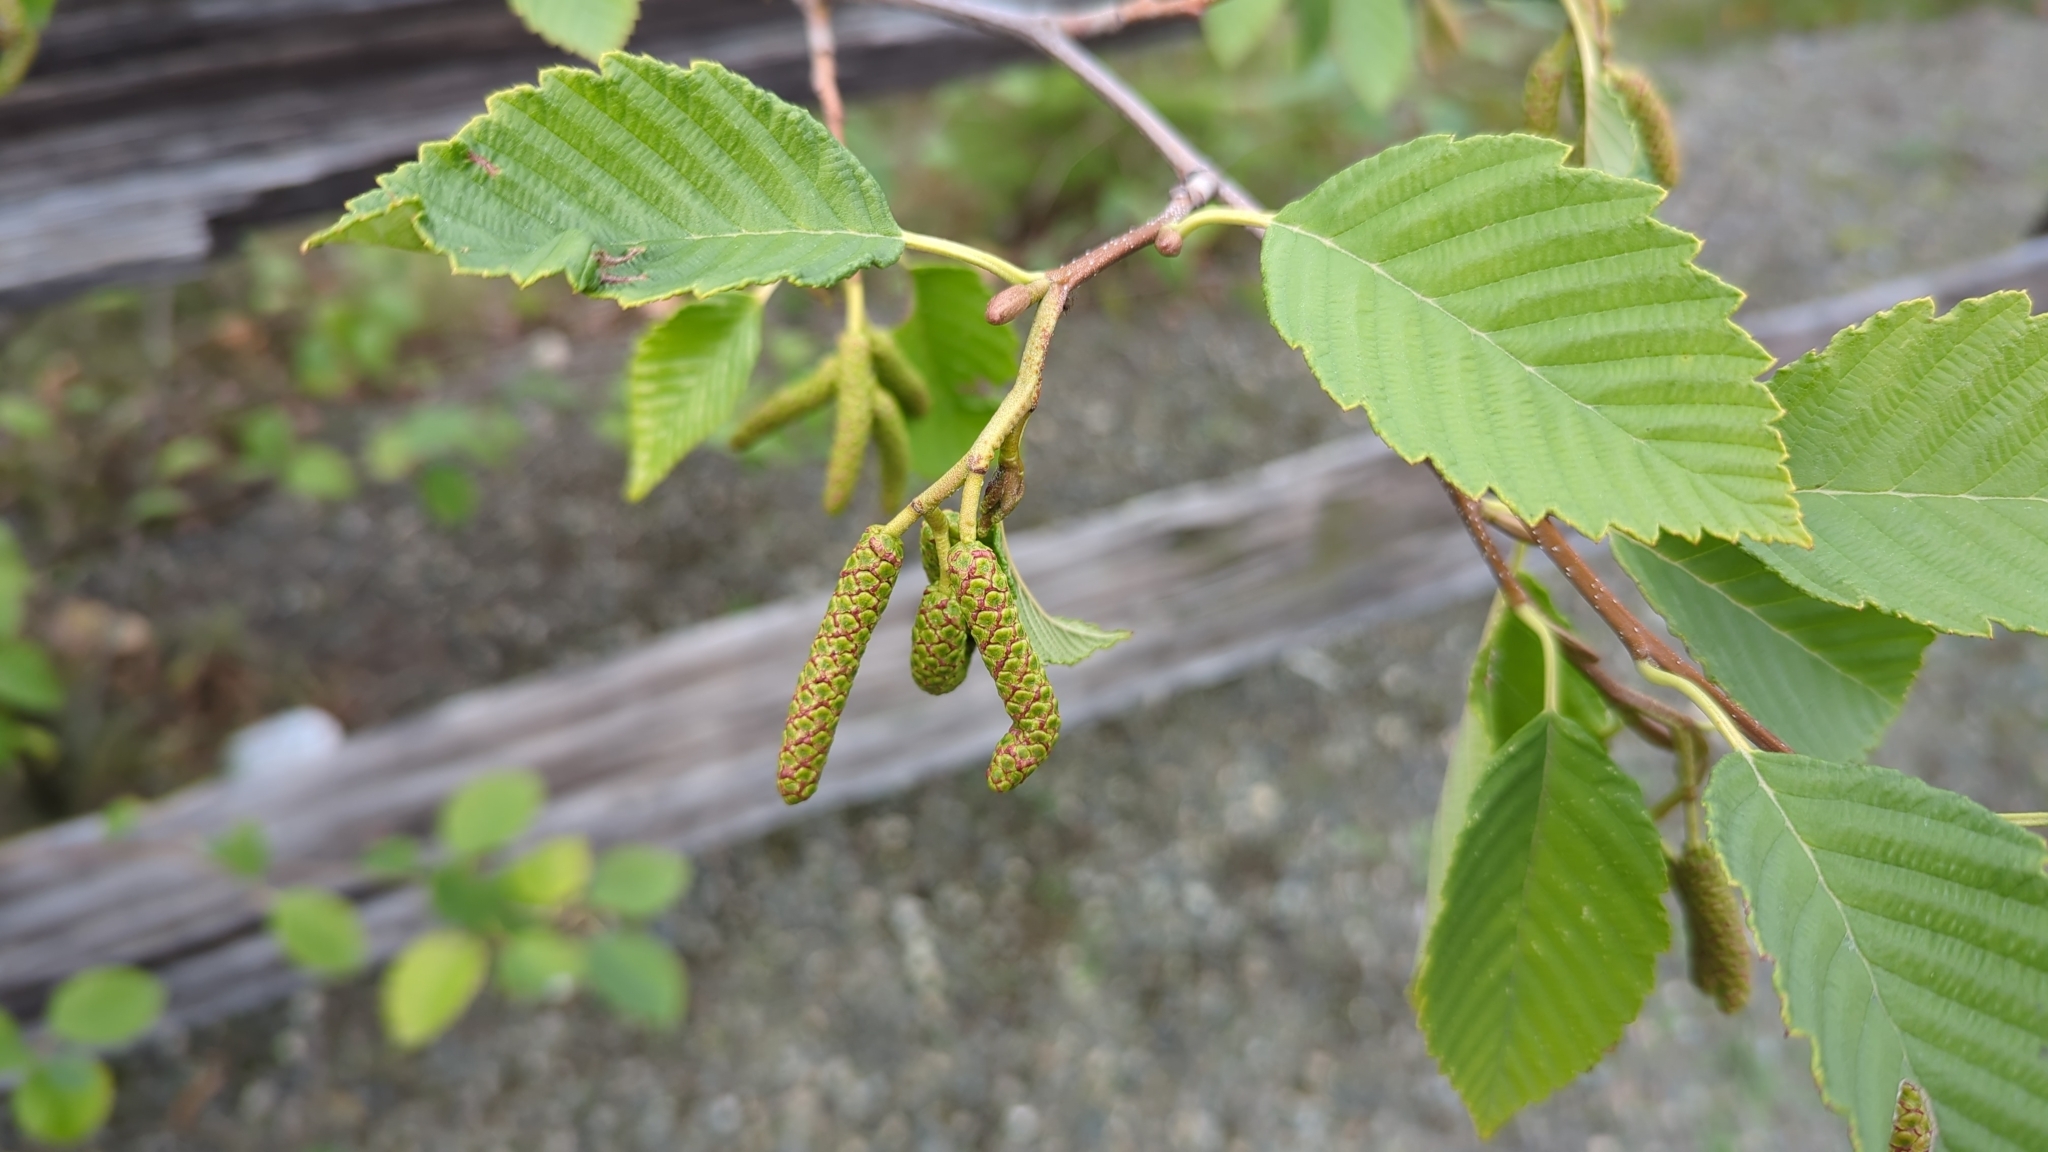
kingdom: Plantae
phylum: Tracheophyta
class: Magnoliopsida
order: Fagales
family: Betulaceae
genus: Alnus
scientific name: Alnus rubra
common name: Red alder
